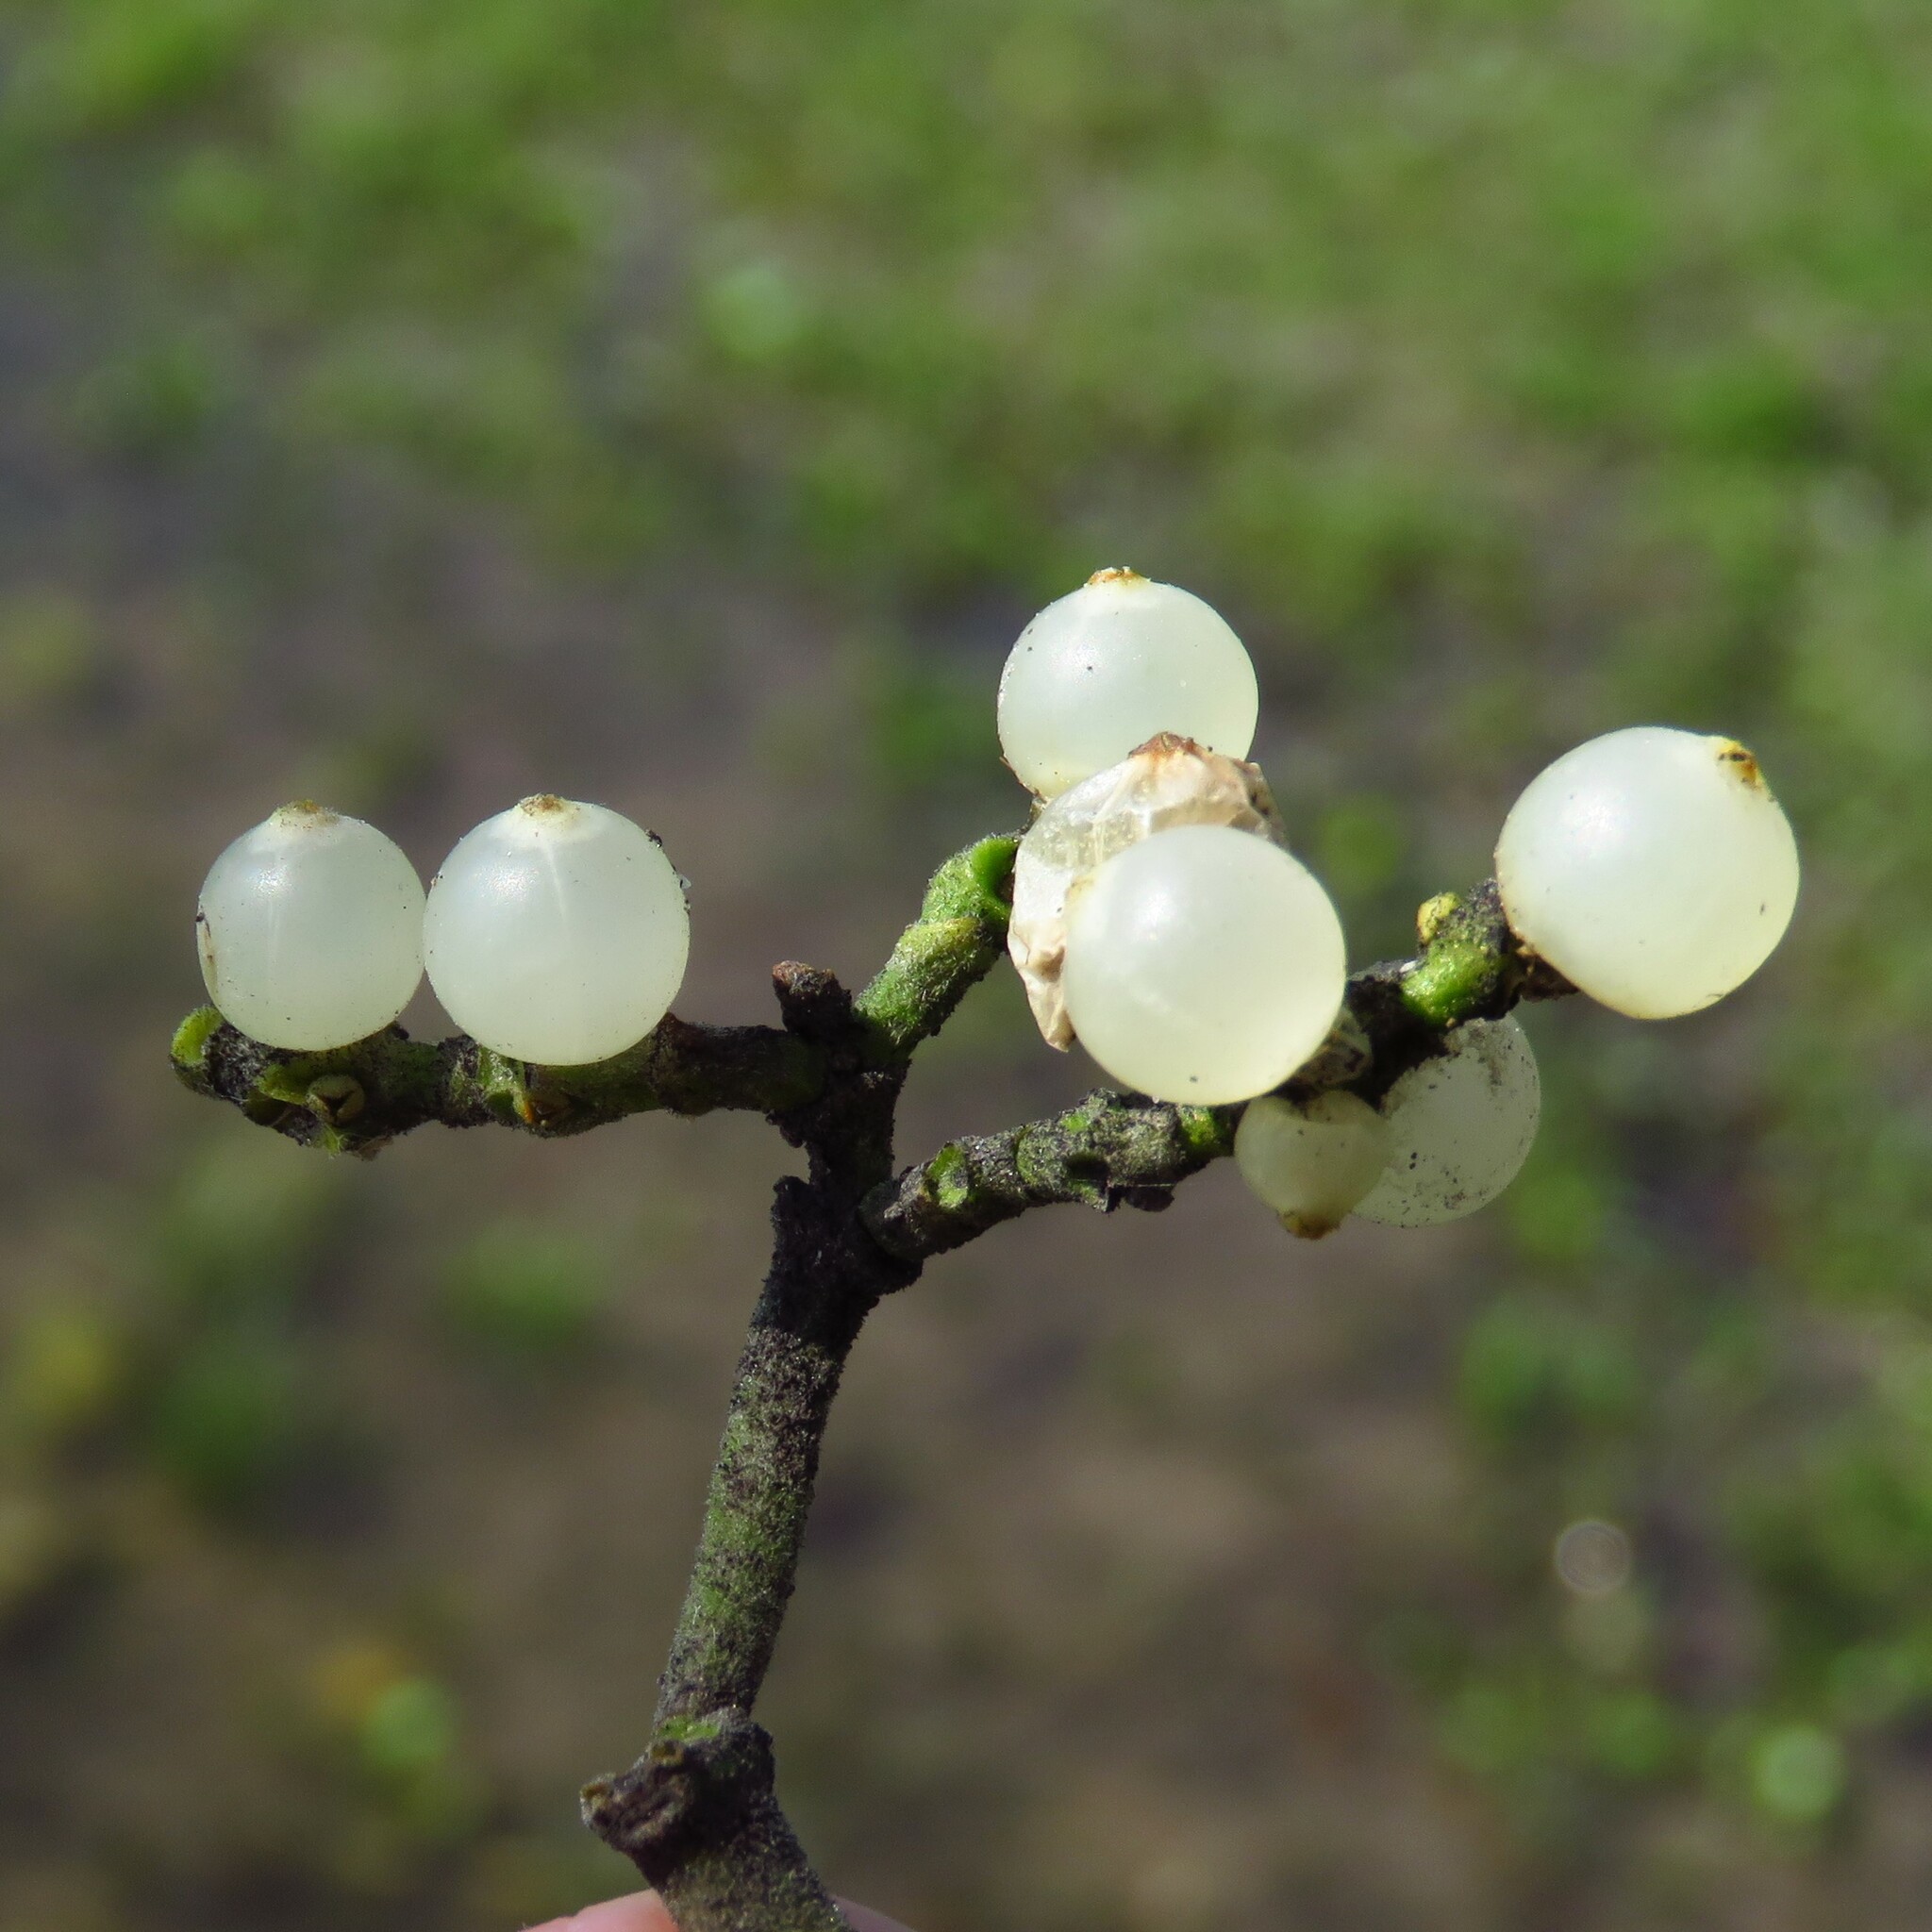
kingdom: Plantae
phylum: Tracheophyta
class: Magnoliopsida
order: Santalales
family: Viscaceae
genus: Phoradendron
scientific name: Phoradendron leucarpum
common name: Pacific mistletoe
